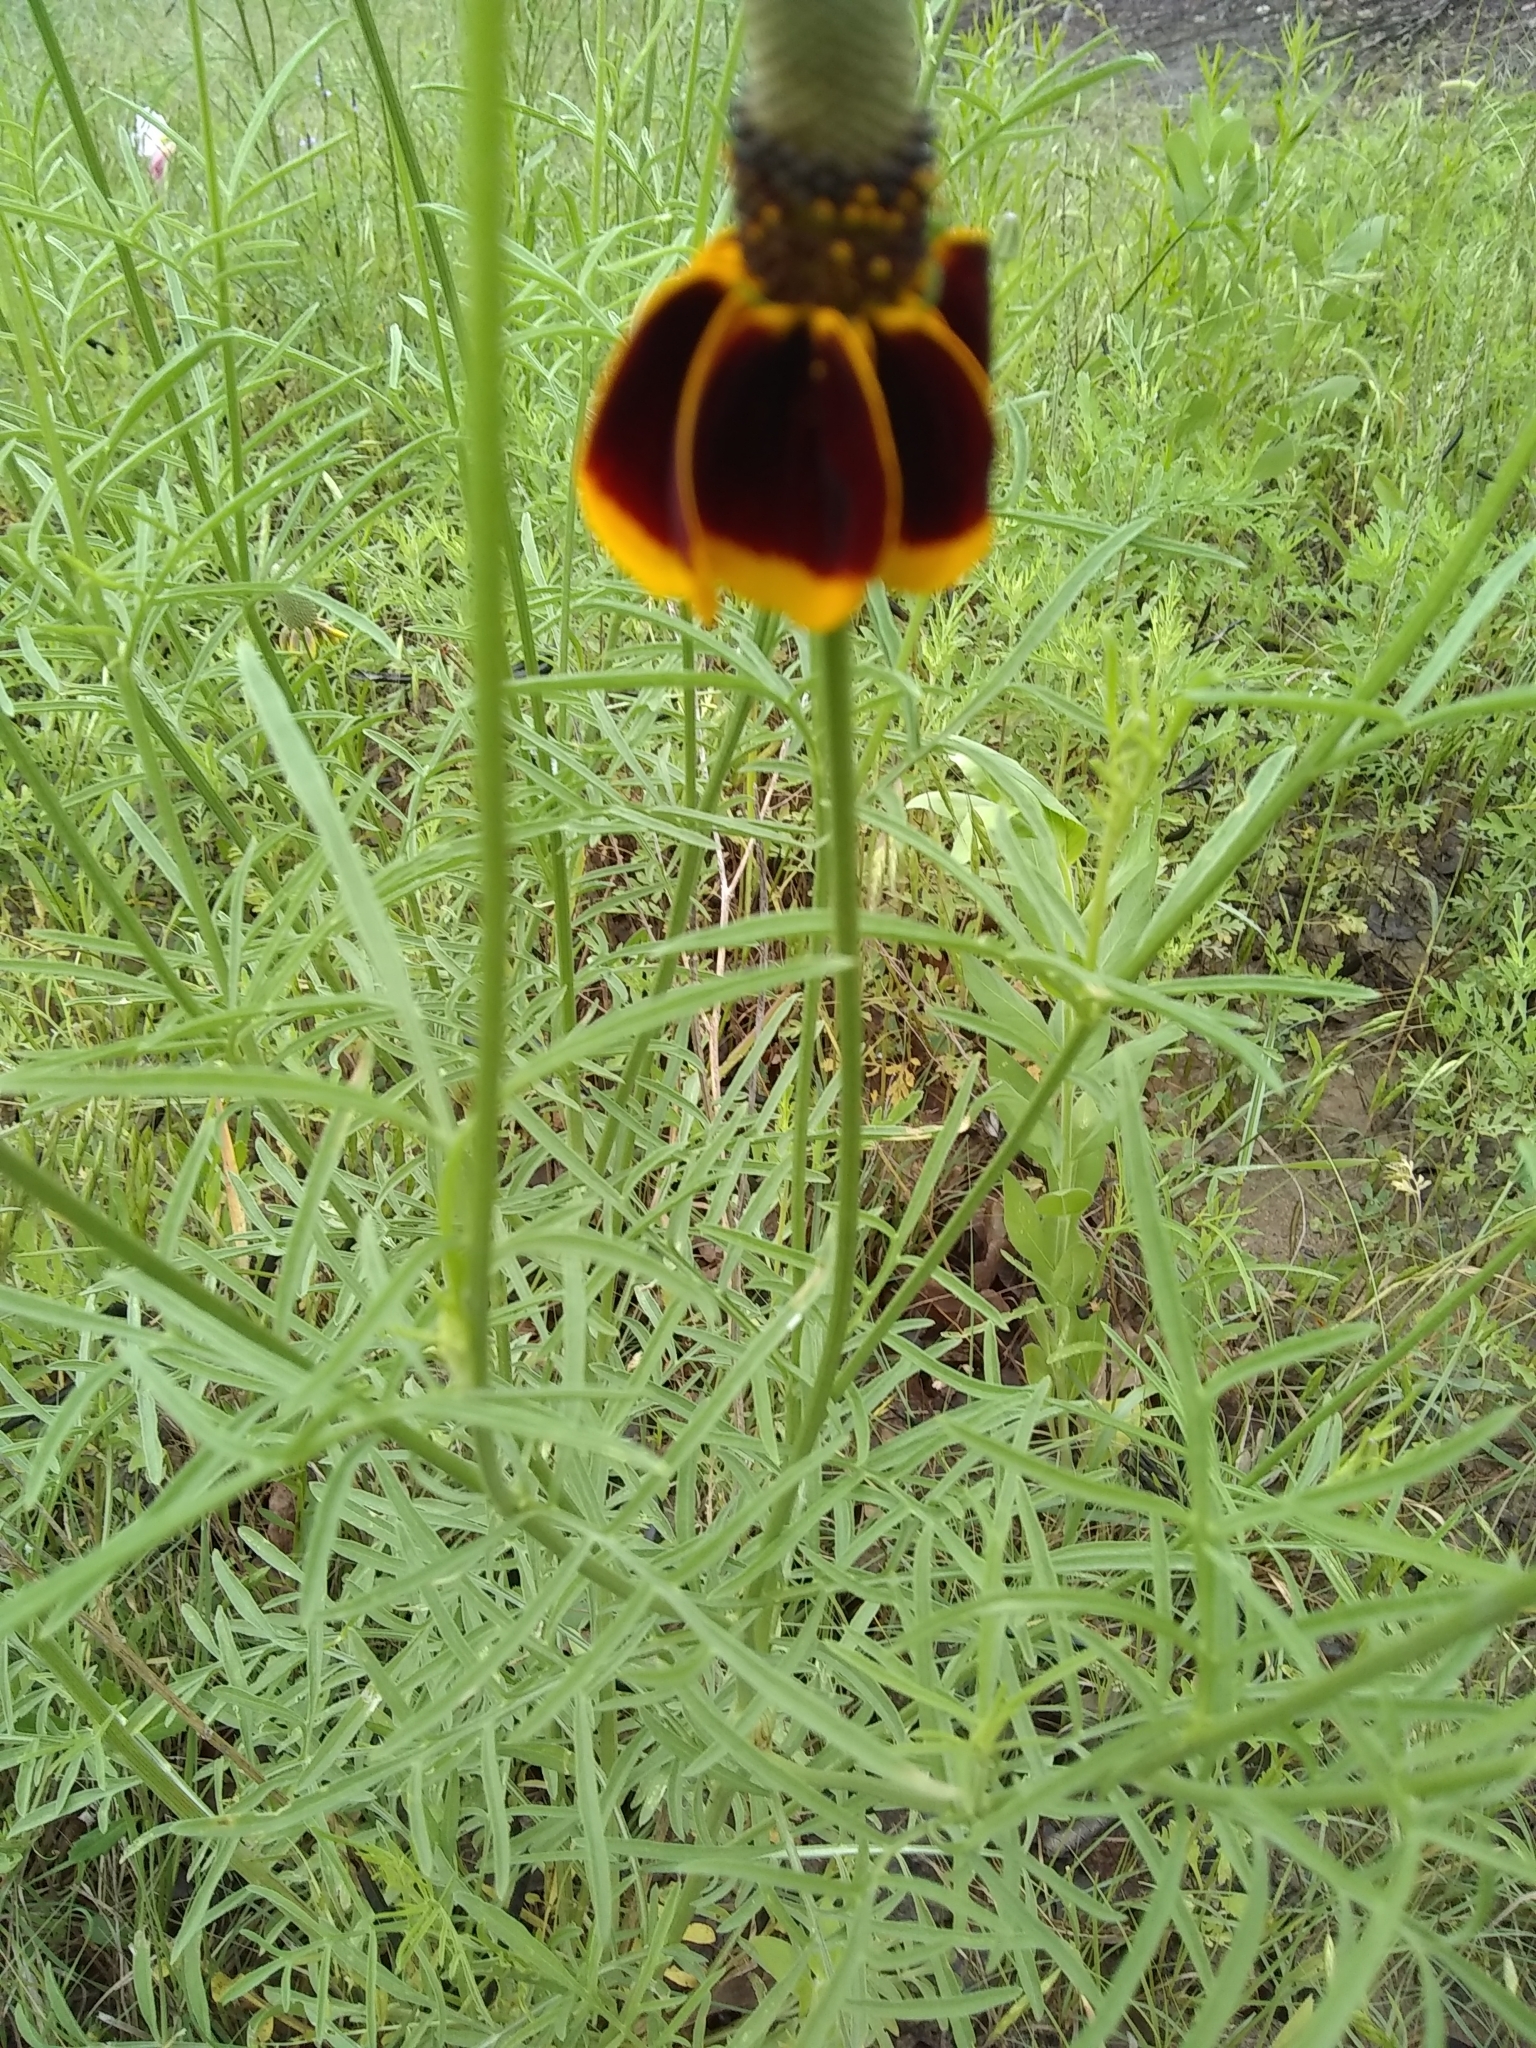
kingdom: Plantae
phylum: Tracheophyta
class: Magnoliopsida
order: Asterales
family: Asteraceae
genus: Ratibida
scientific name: Ratibida columnifera
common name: Prairie coneflower
